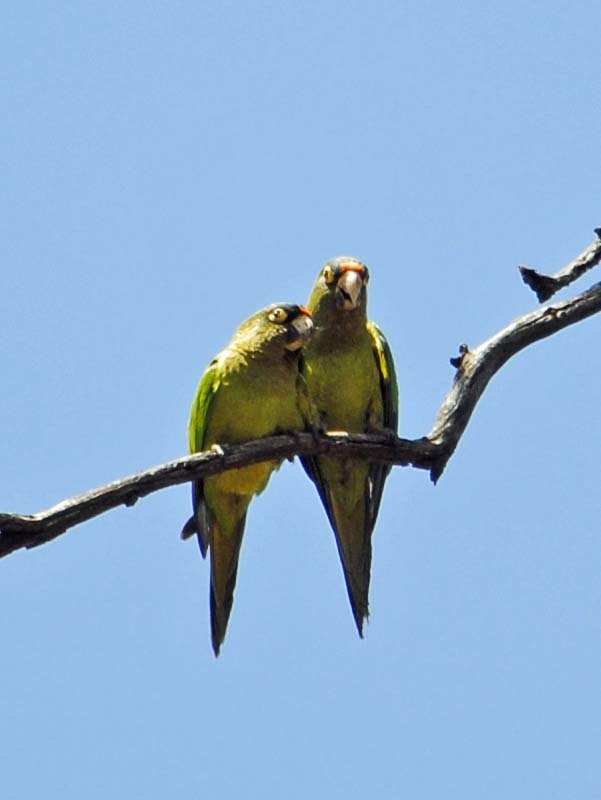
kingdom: Animalia
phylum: Chordata
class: Aves
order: Psittaciformes
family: Psittacidae
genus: Aratinga
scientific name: Aratinga canicularis
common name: Orange-fronted parakeet
